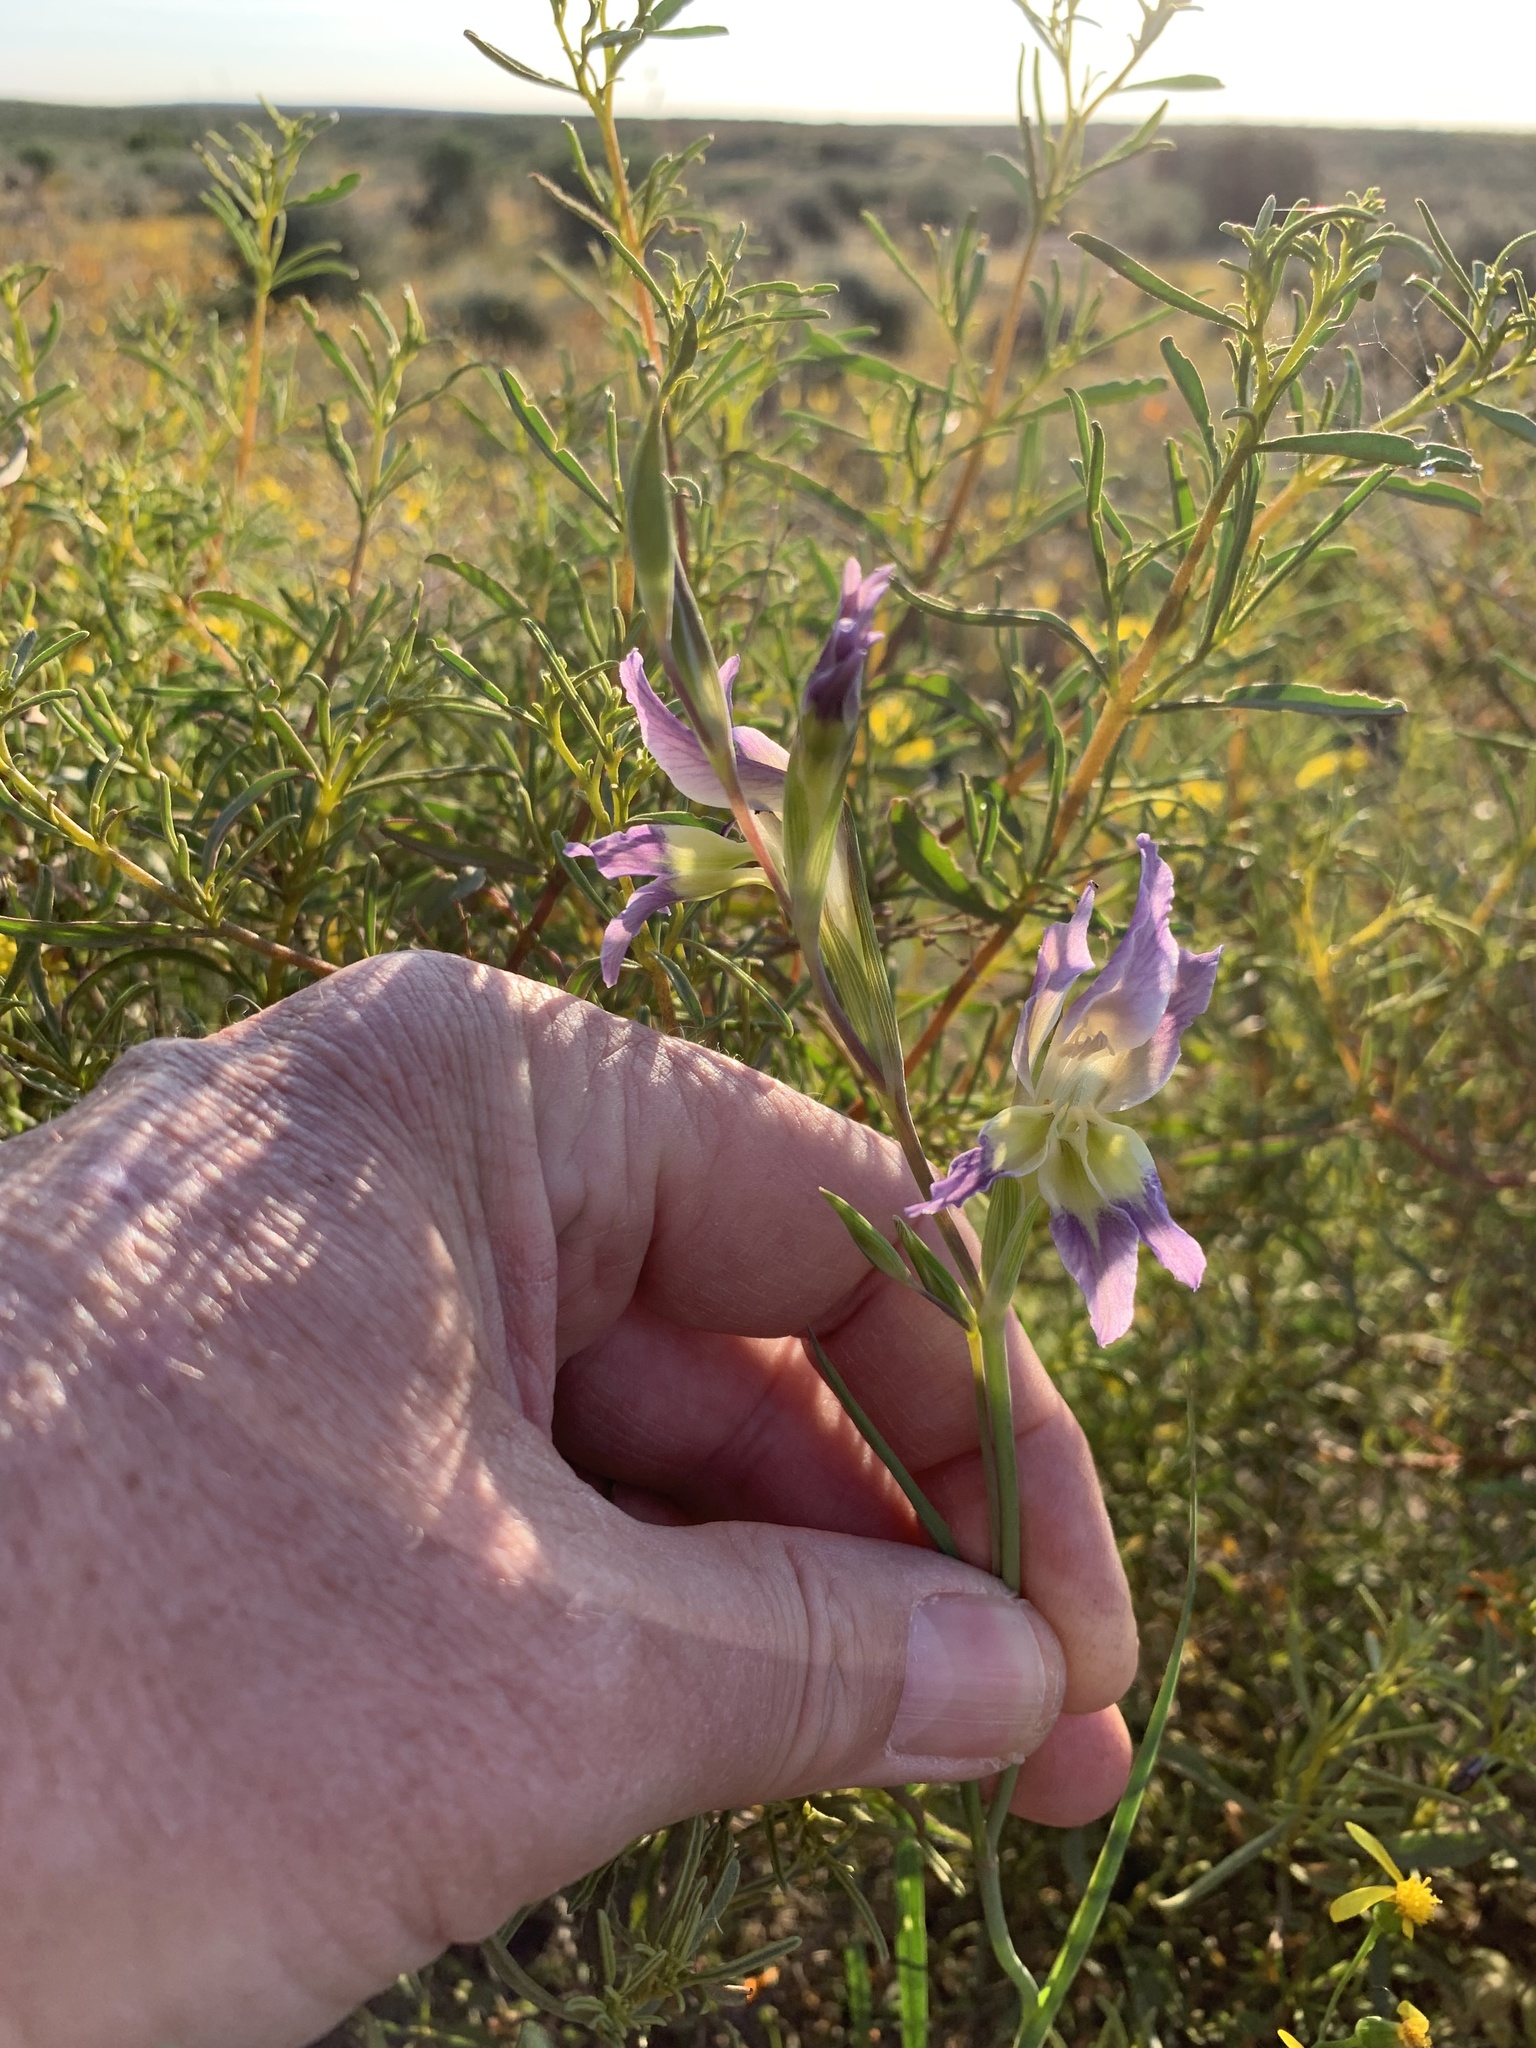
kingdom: Plantae
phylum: Tracheophyta
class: Liliopsida
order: Asparagales
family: Iridaceae
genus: Gladiolus
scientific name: Gladiolus venustus
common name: Purple kalkoentjie
